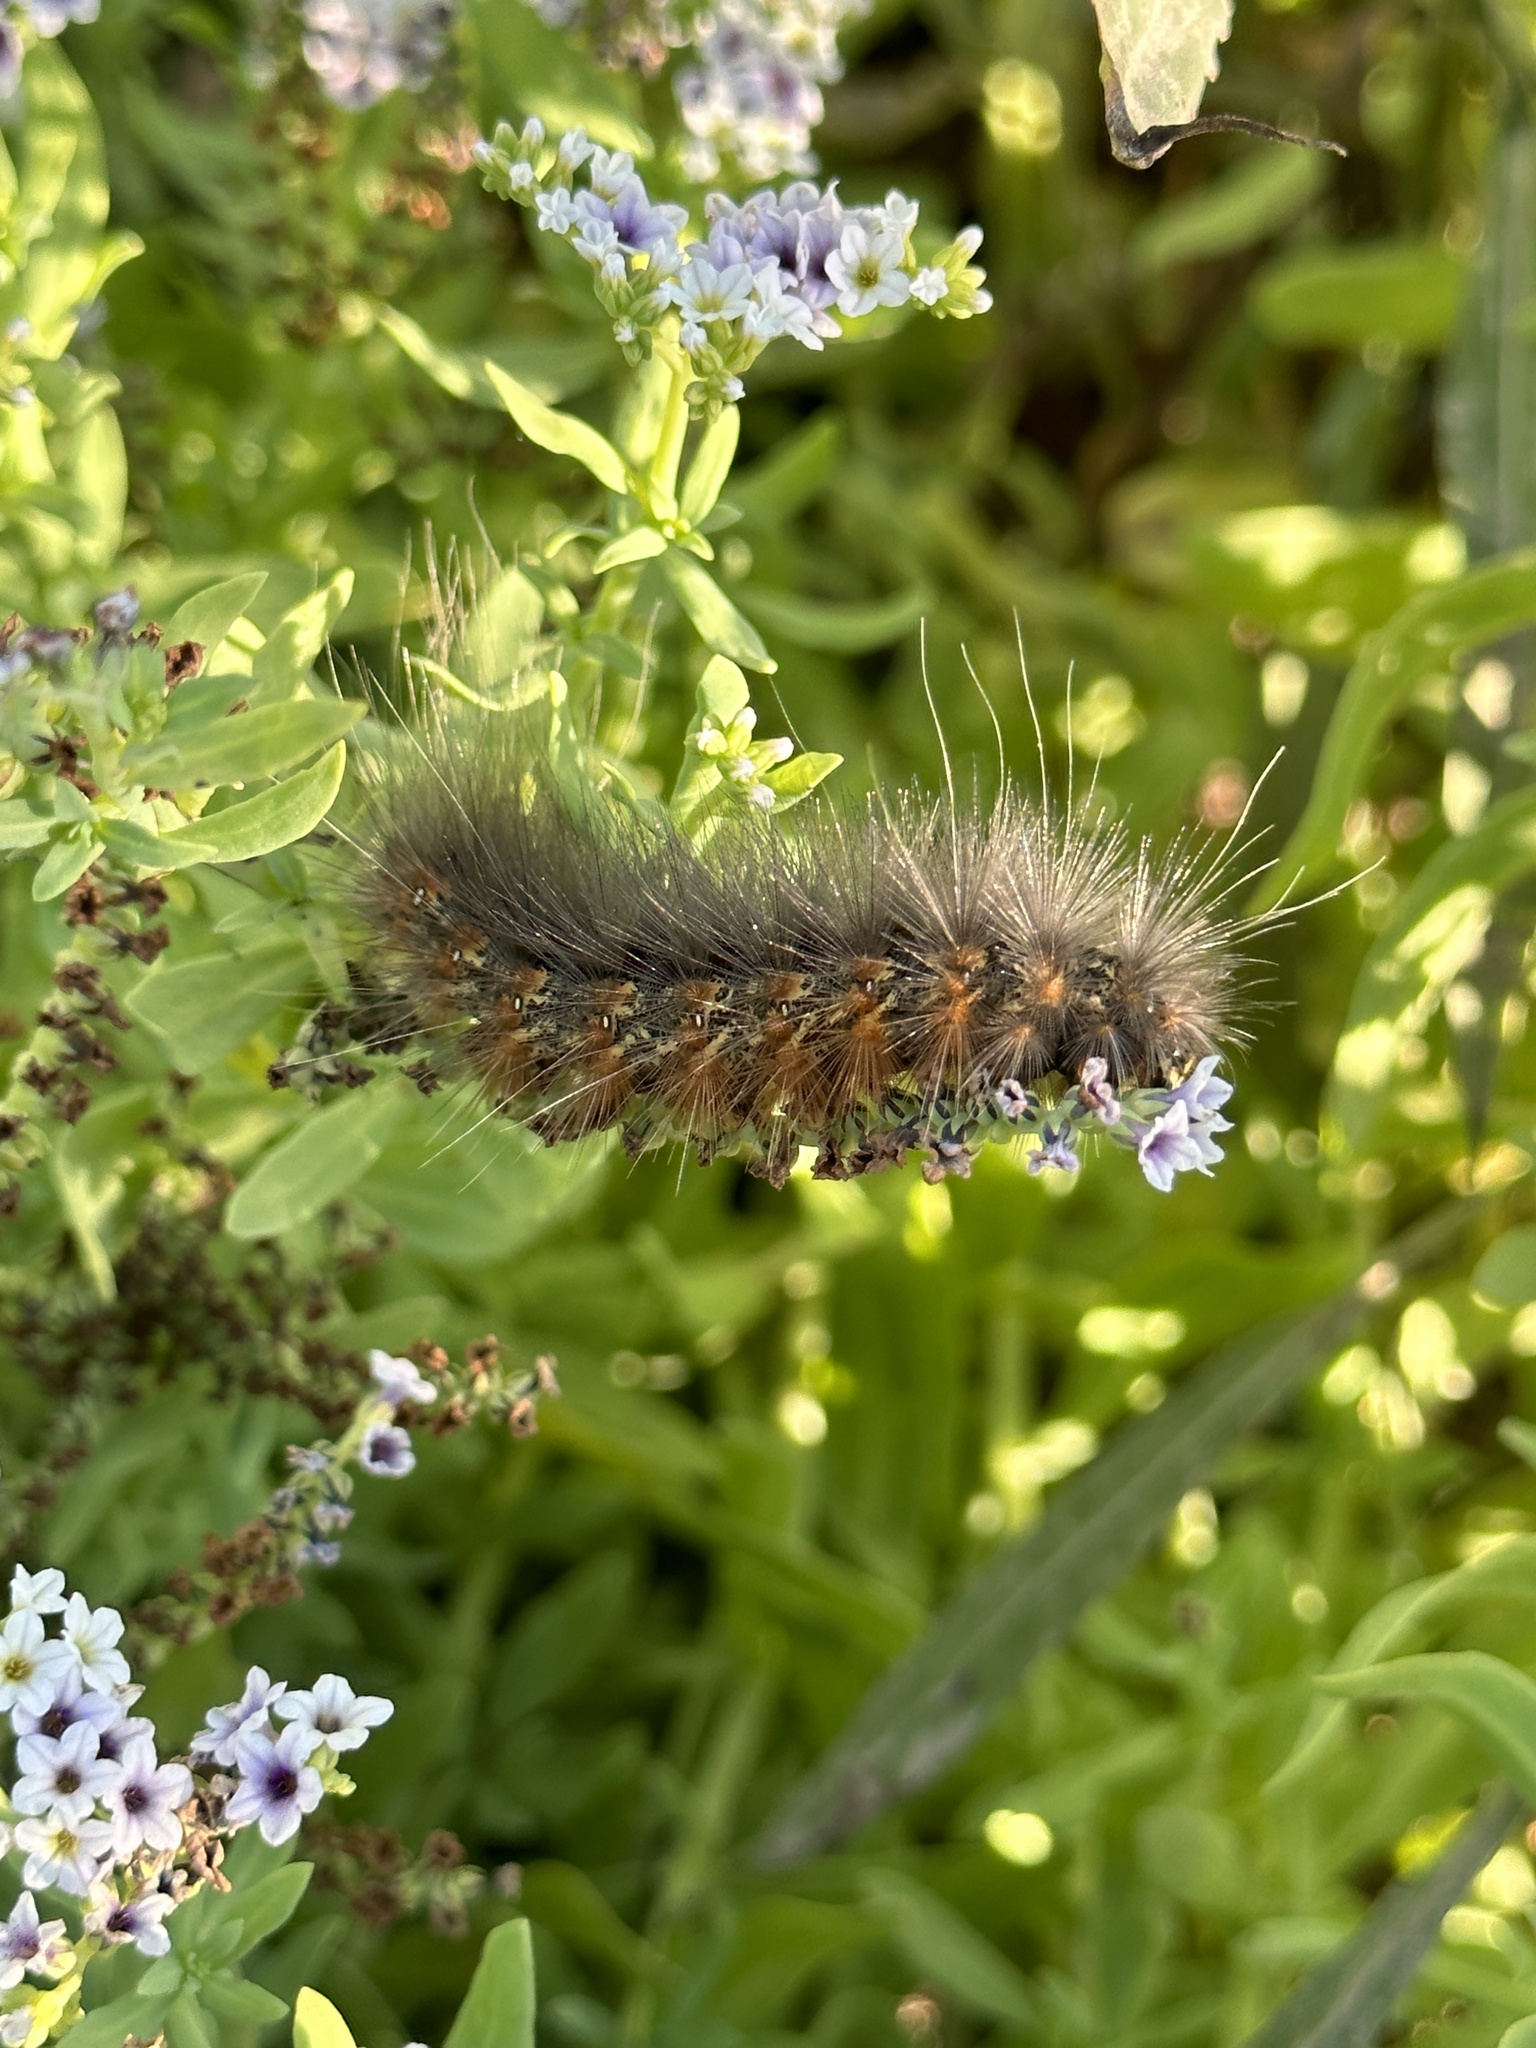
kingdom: Animalia
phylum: Arthropoda
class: Insecta
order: Lepidoptera
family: Erebidae
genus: Estigmene
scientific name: Estigmene acrea
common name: Salt marsh moth
